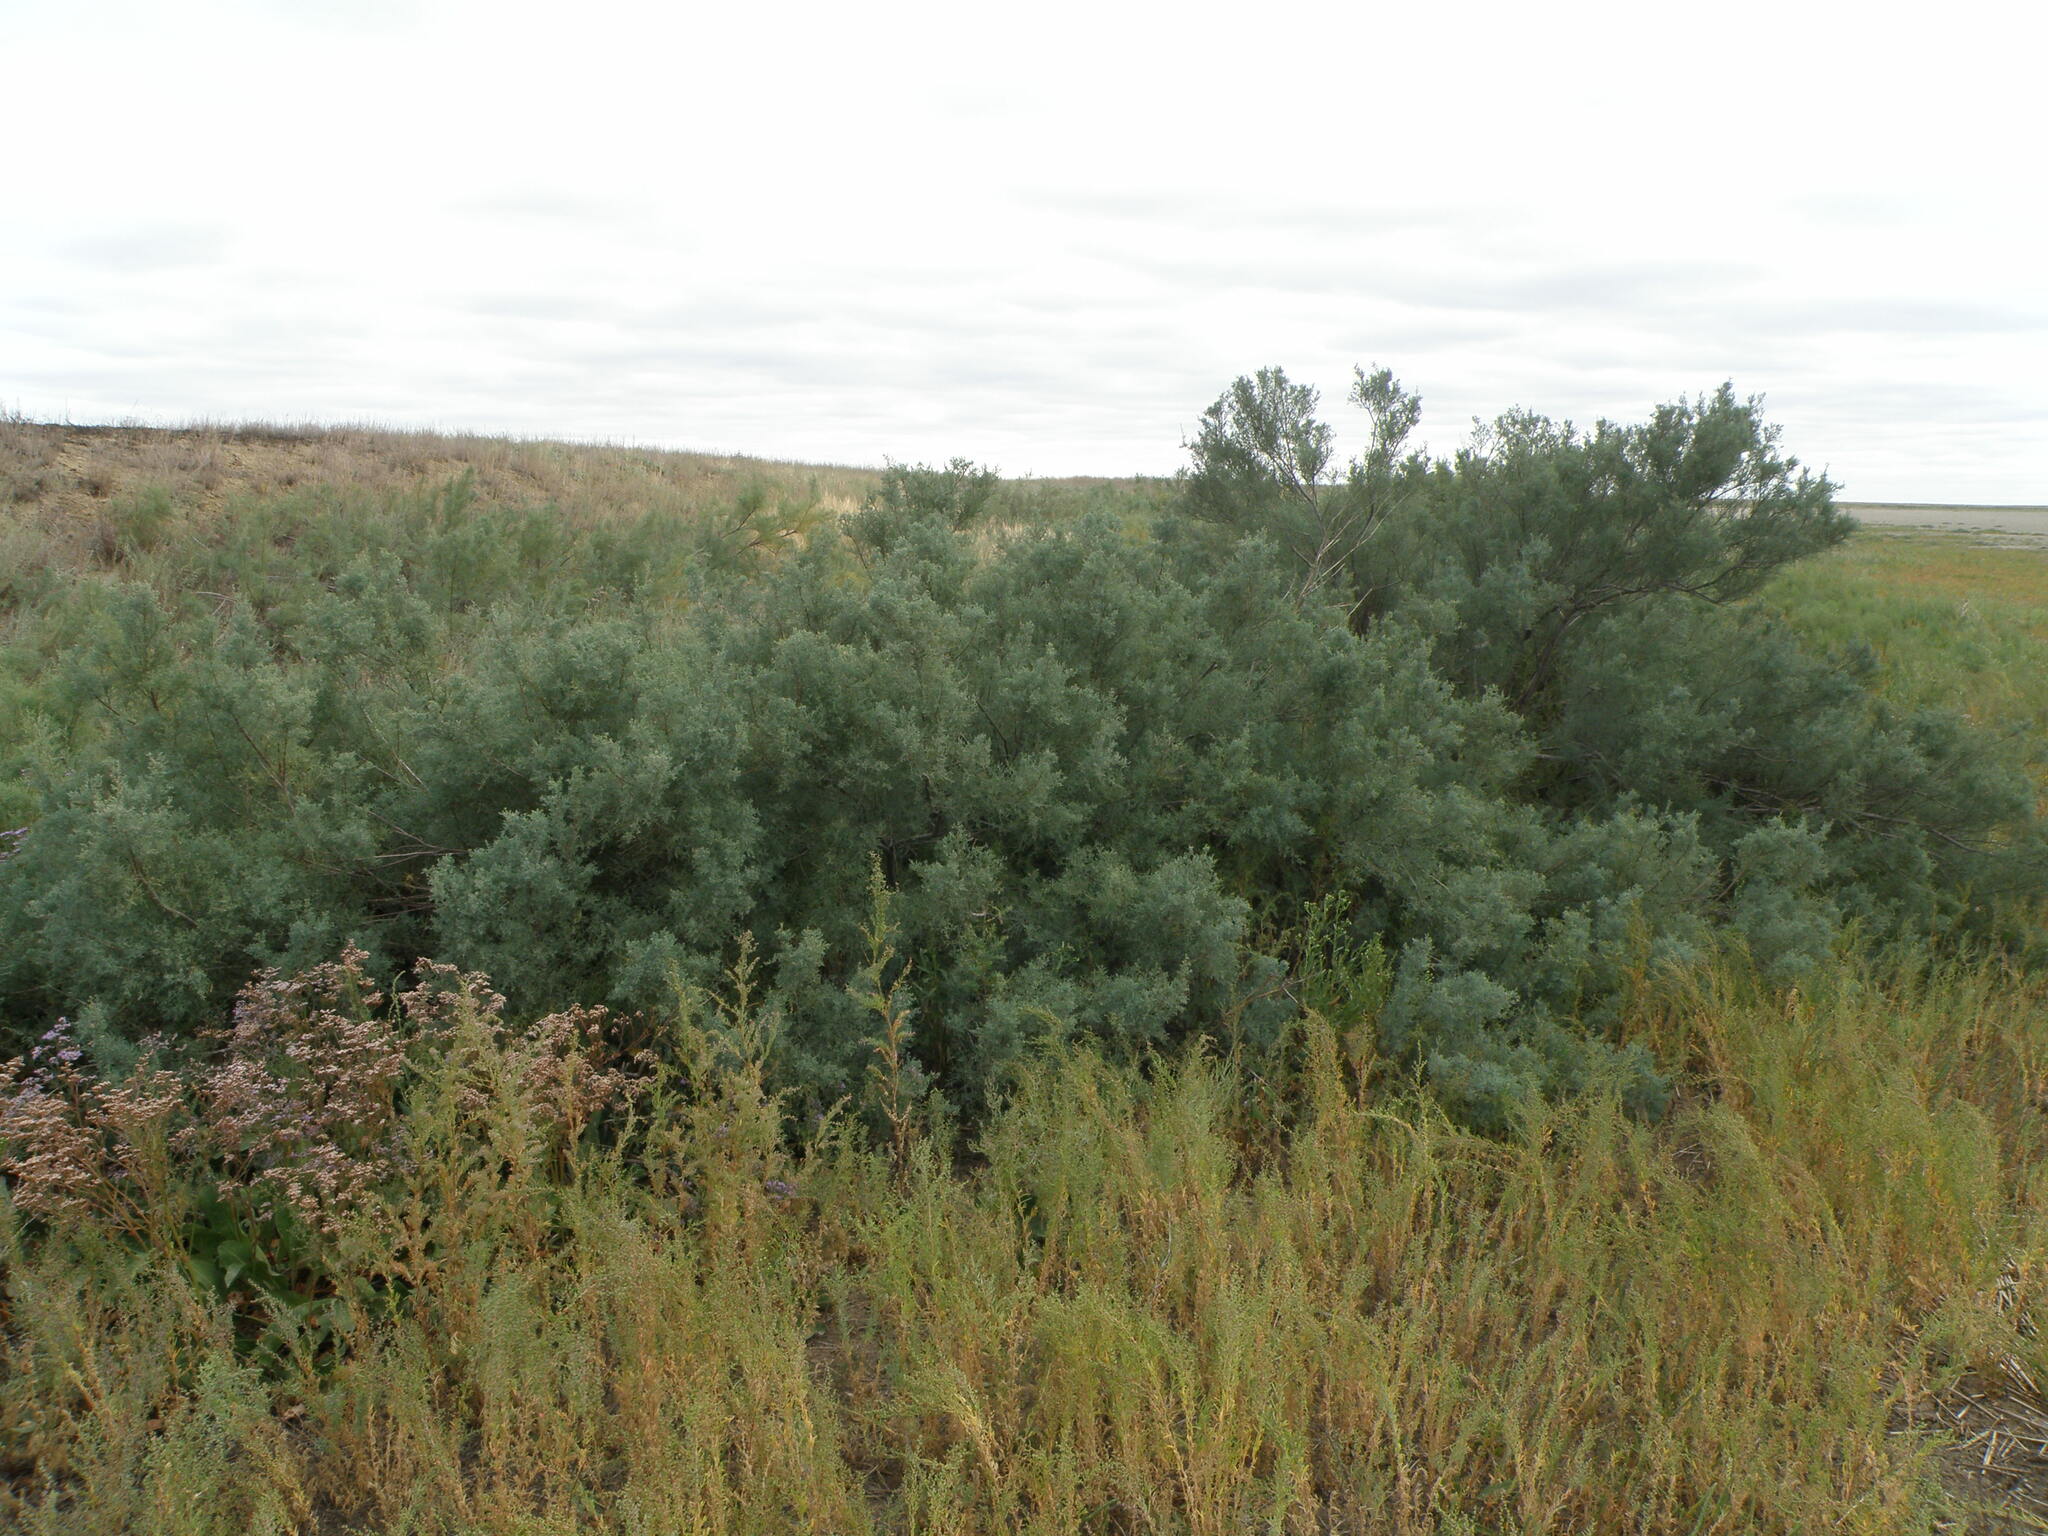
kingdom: Plantae
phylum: Tracheophyta
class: Magnoliopsida
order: Caryophyllales
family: Tamaricaceae
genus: Tamarix
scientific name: Tamarix ramosissima
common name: Pink tamarisk
